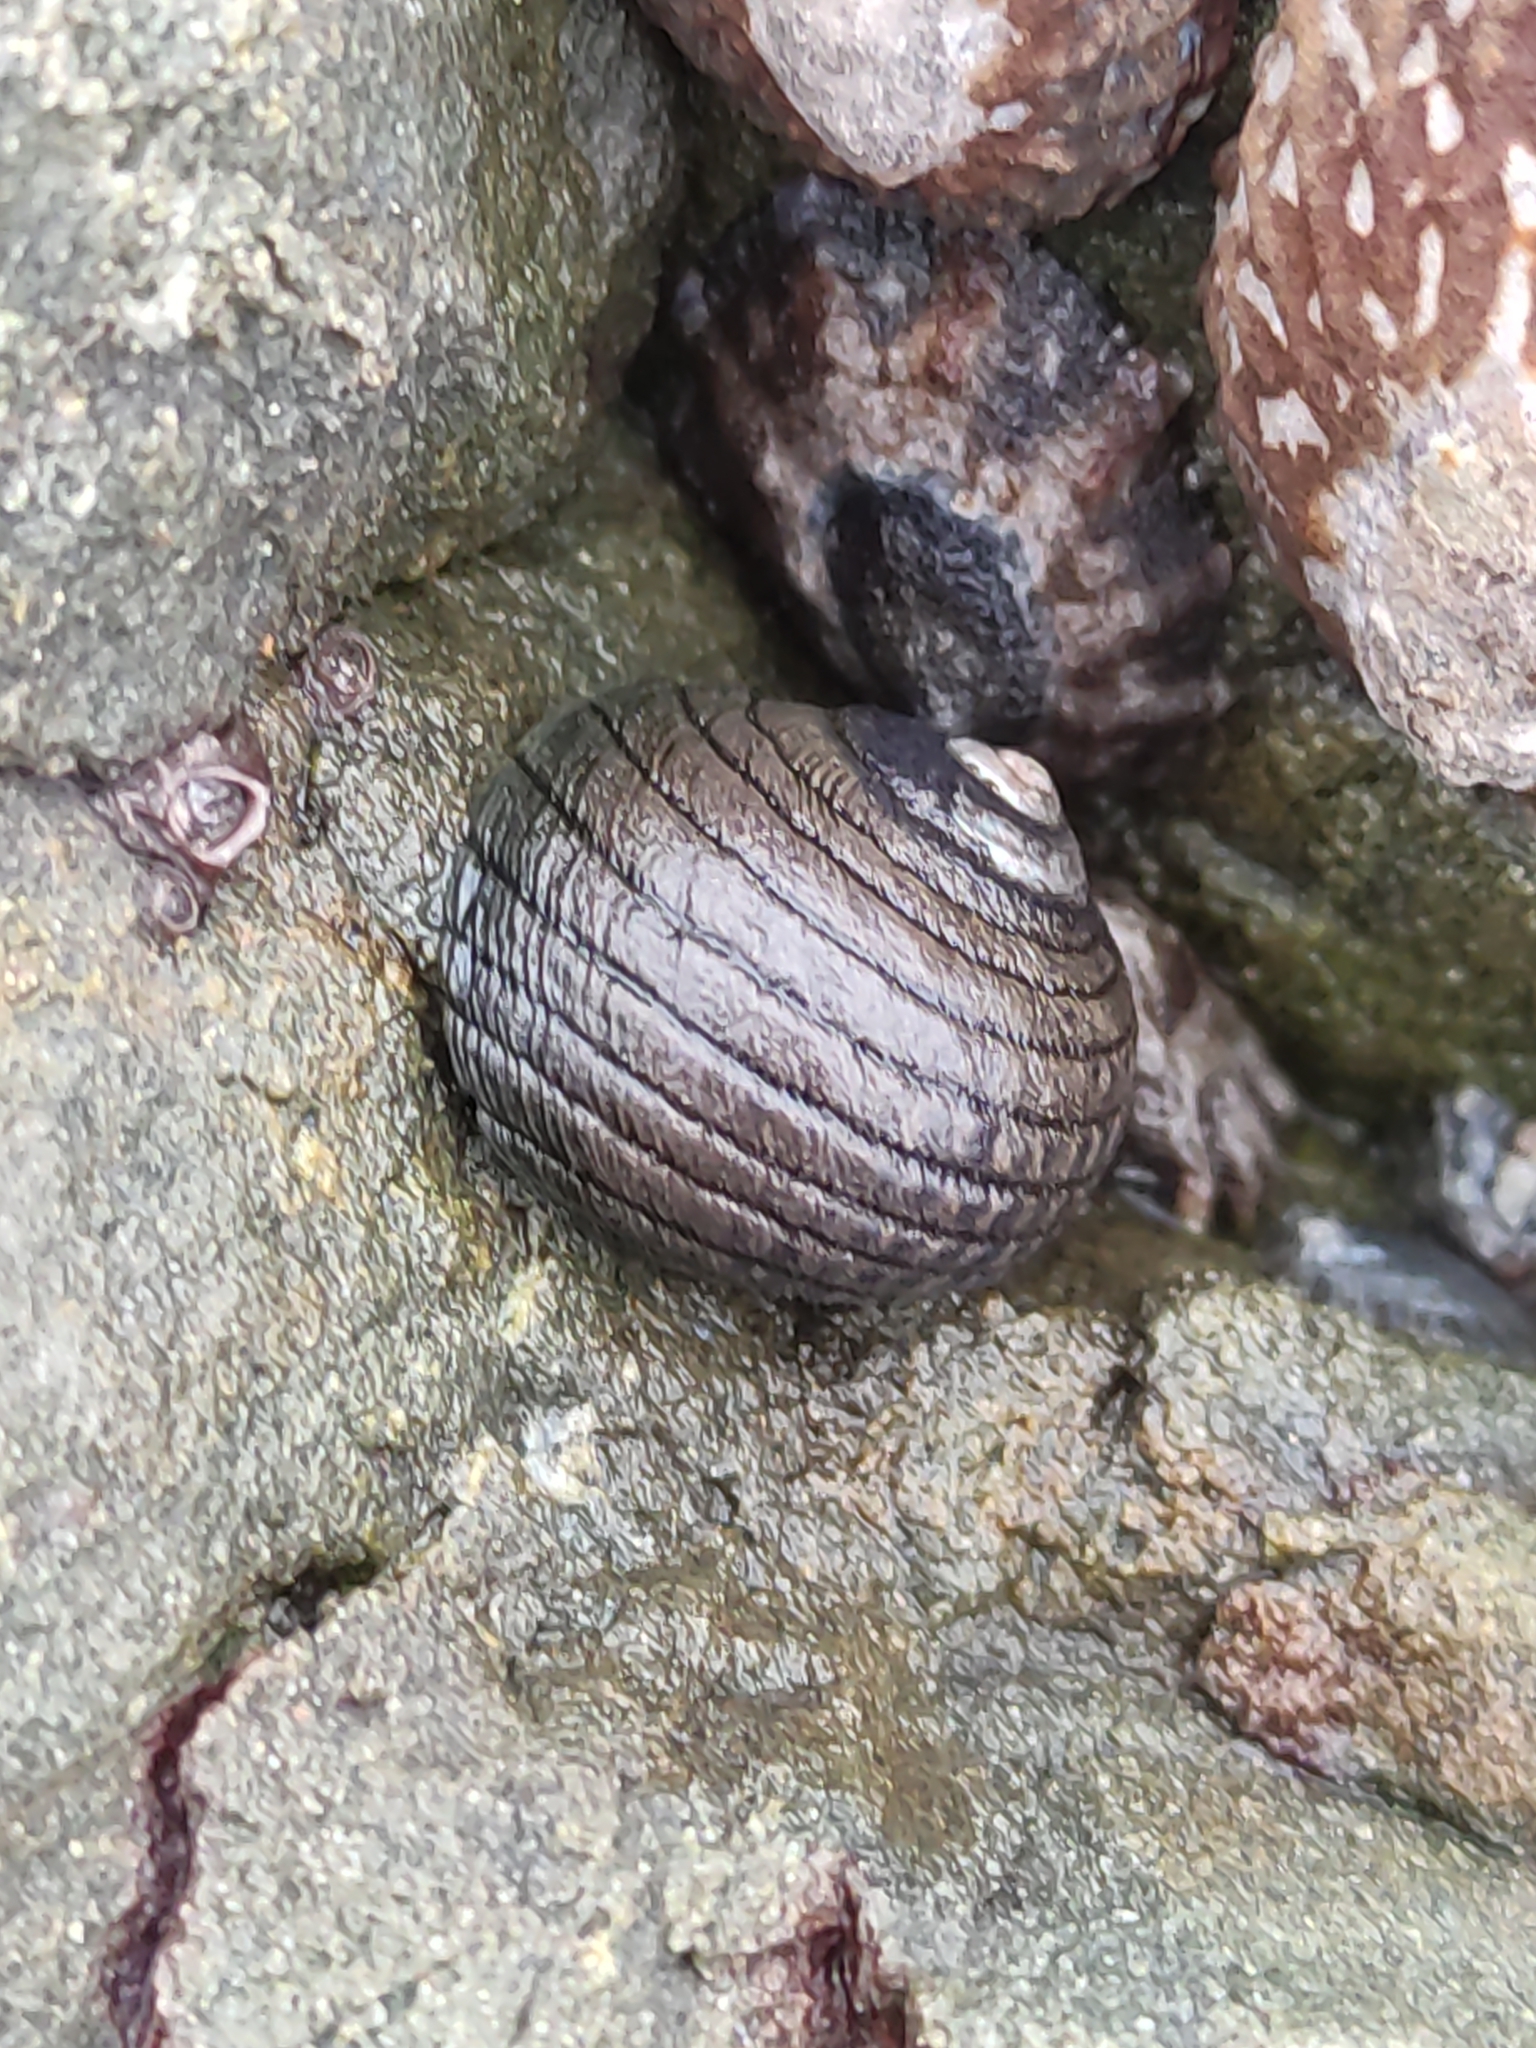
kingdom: Animalia
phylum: Mollusca
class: Gastropoda
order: Trochida
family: Trochidae
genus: Diloma
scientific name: Diloma aethiops
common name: Scorched monodont
